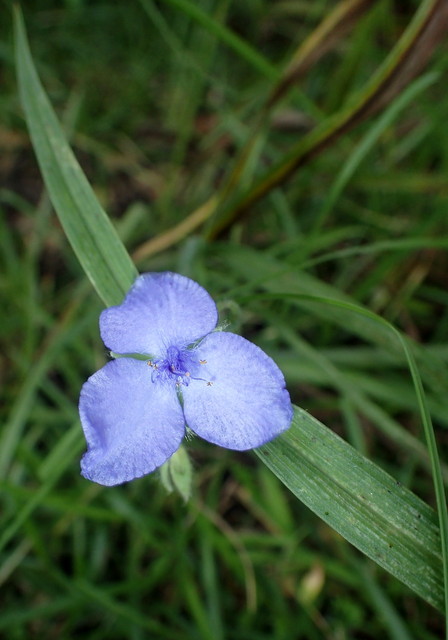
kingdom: Plantae
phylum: Tracheophyta
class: Liliopsida
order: Commelinales
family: Commelinaceae
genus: Tradescantia
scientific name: Tradescantia ohiensis
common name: Ohio spiderwort
